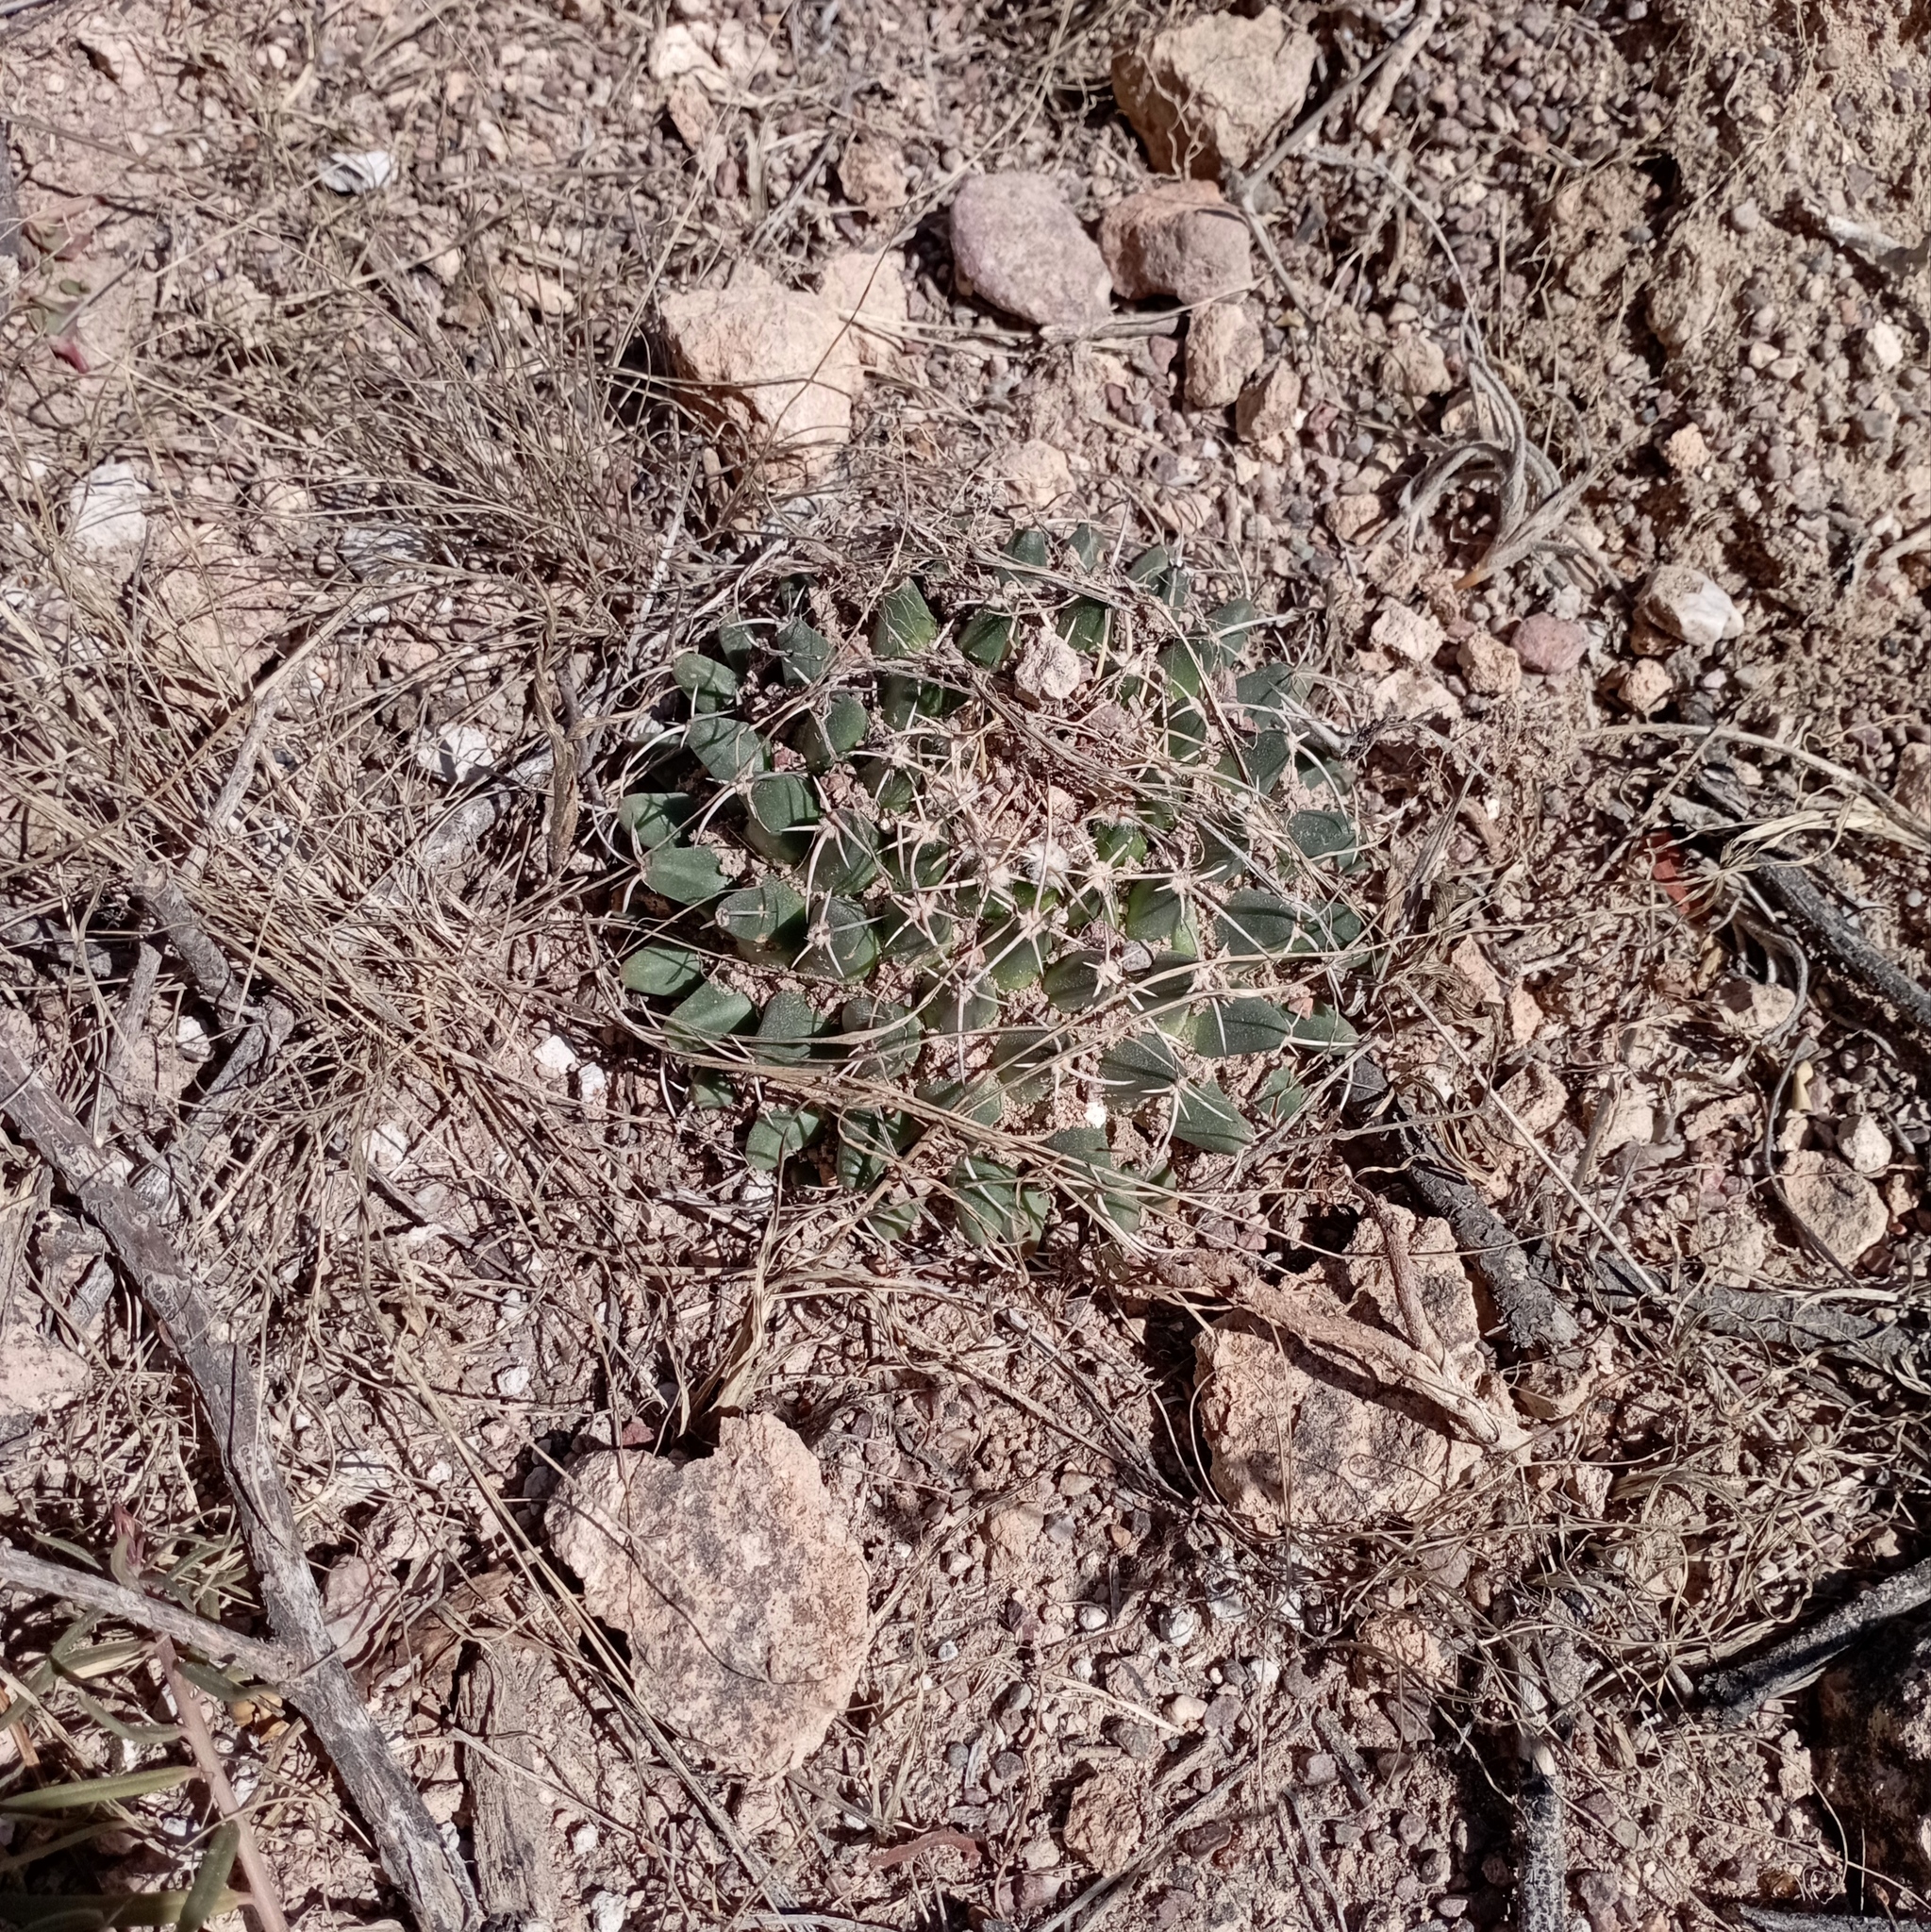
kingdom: Plantae
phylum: Tracheophyta
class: Magnoliopsida
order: Caryophyllales
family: Cactaceae
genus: Mammillaria
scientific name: Mammillaria magnimamma
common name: Mexican pincushion
